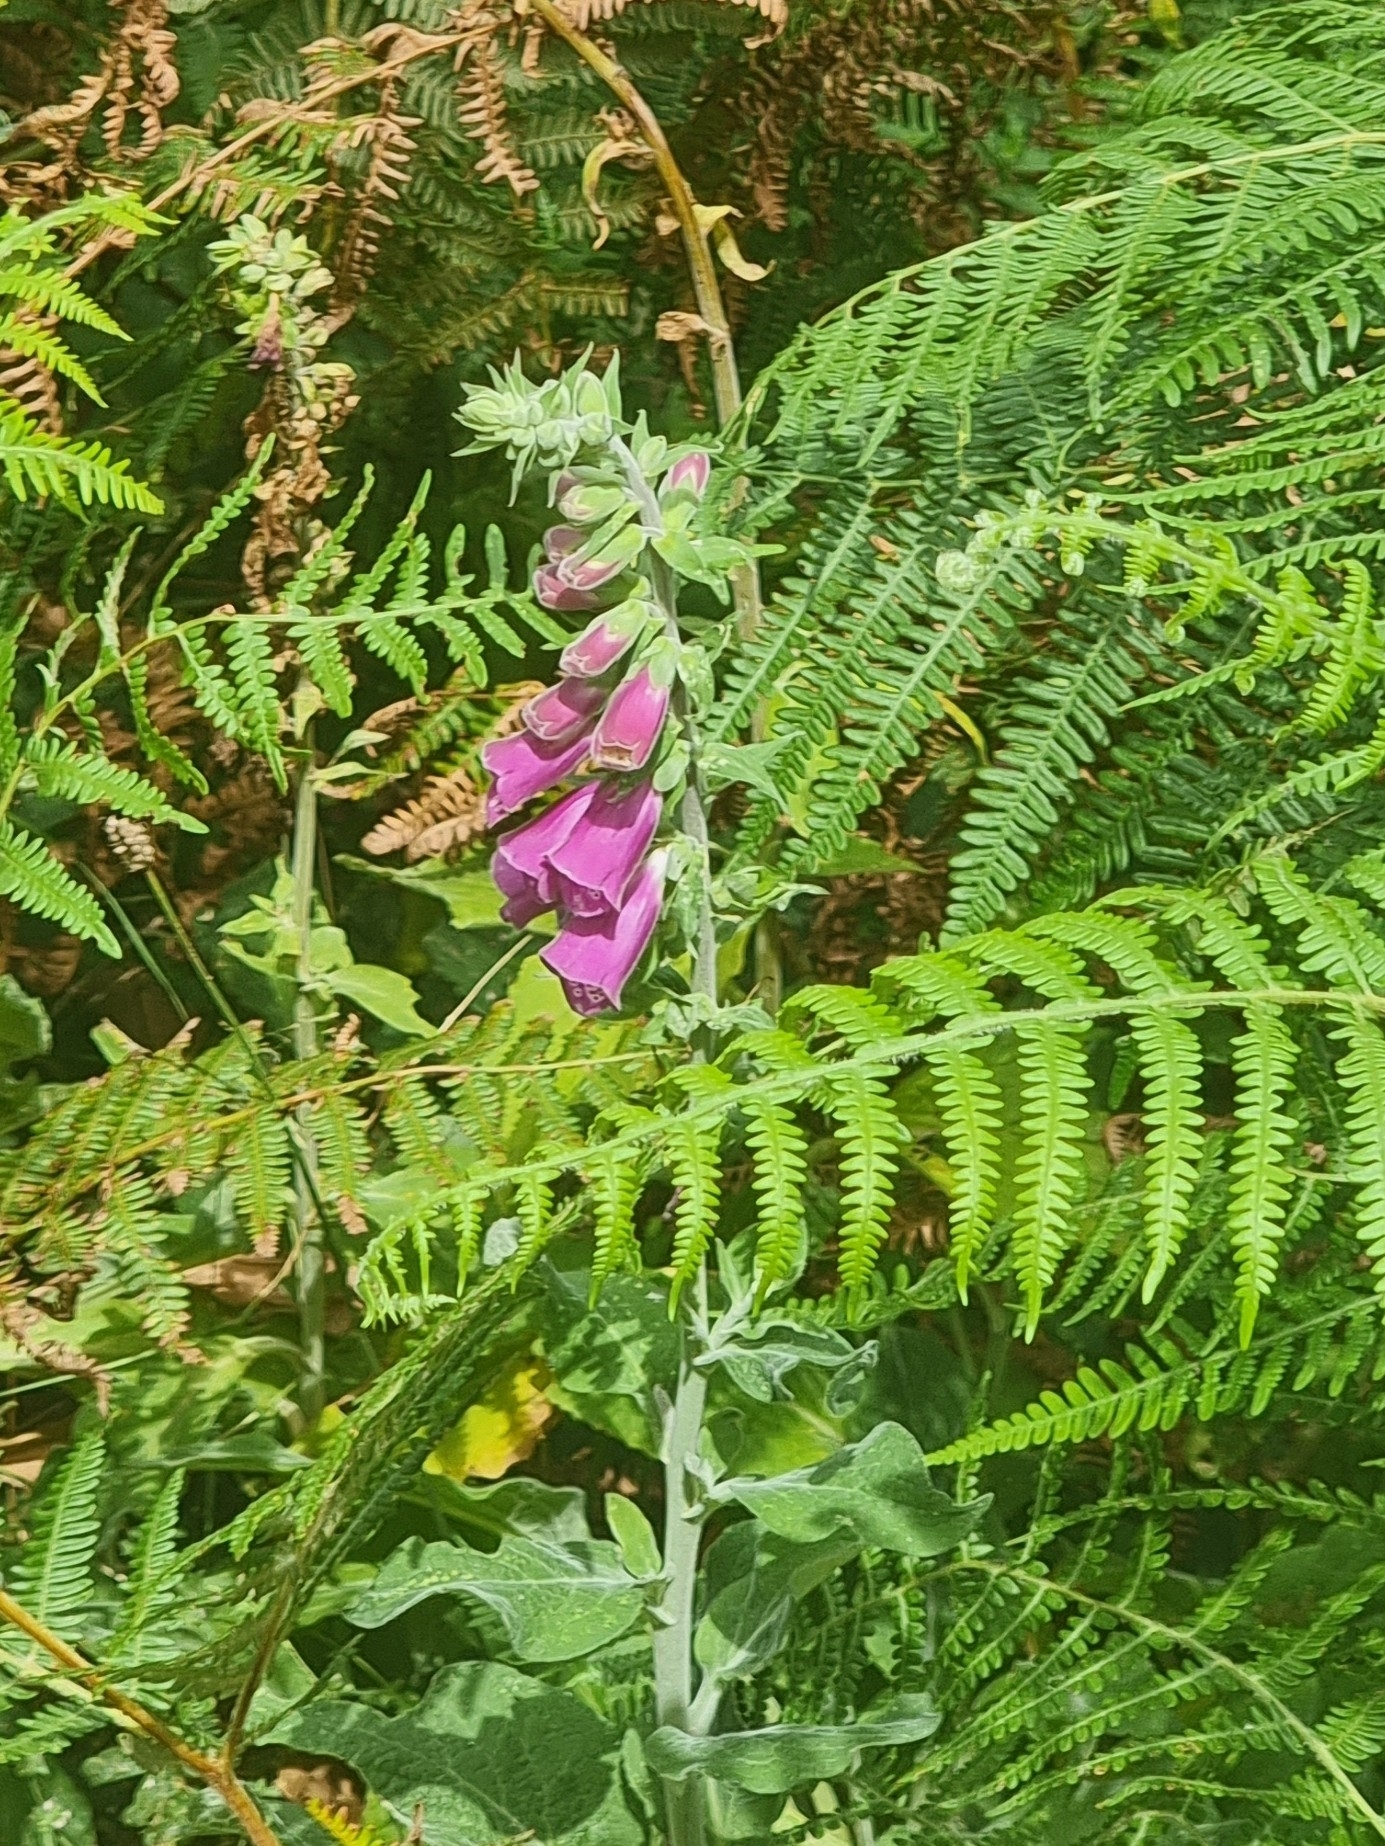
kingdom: Plantae
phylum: Tracheophyta
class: Magnoliopsida
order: Lamiales
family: Plantaginaceae
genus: Digitalis
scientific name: Digitalis purpurea
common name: Foxglove
